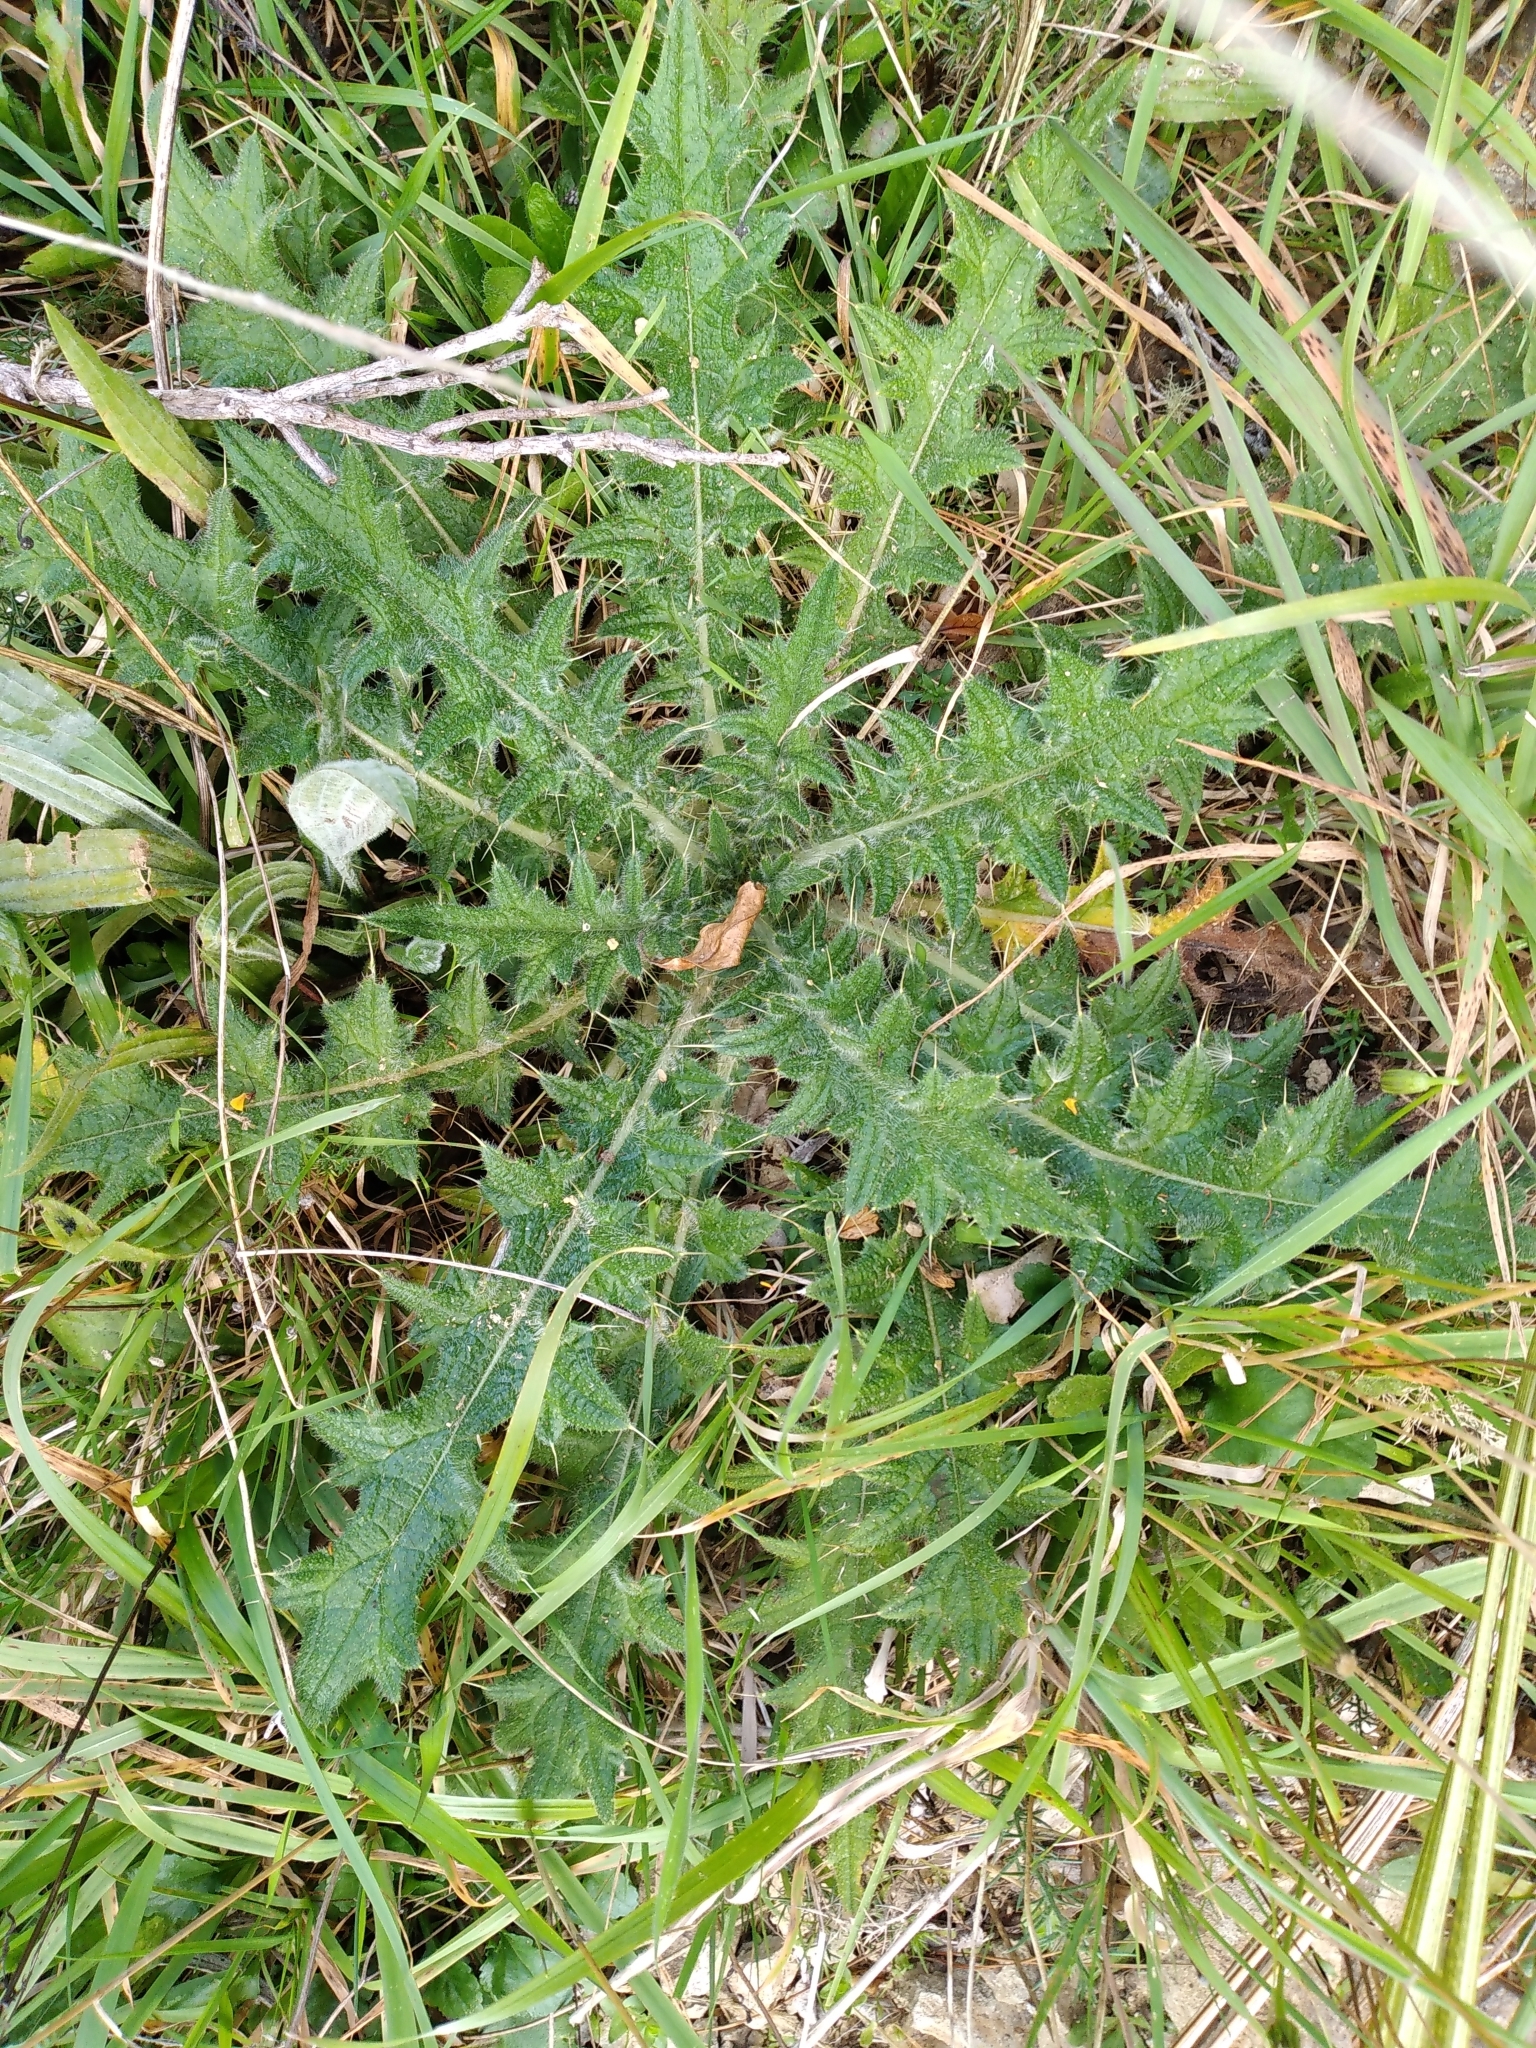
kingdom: Plantae
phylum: Tracheophyta
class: Magnoliopsida
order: Asterales
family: Asteraceae
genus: Cirsium
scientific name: Cirsium vulgare
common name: Bull thistle
